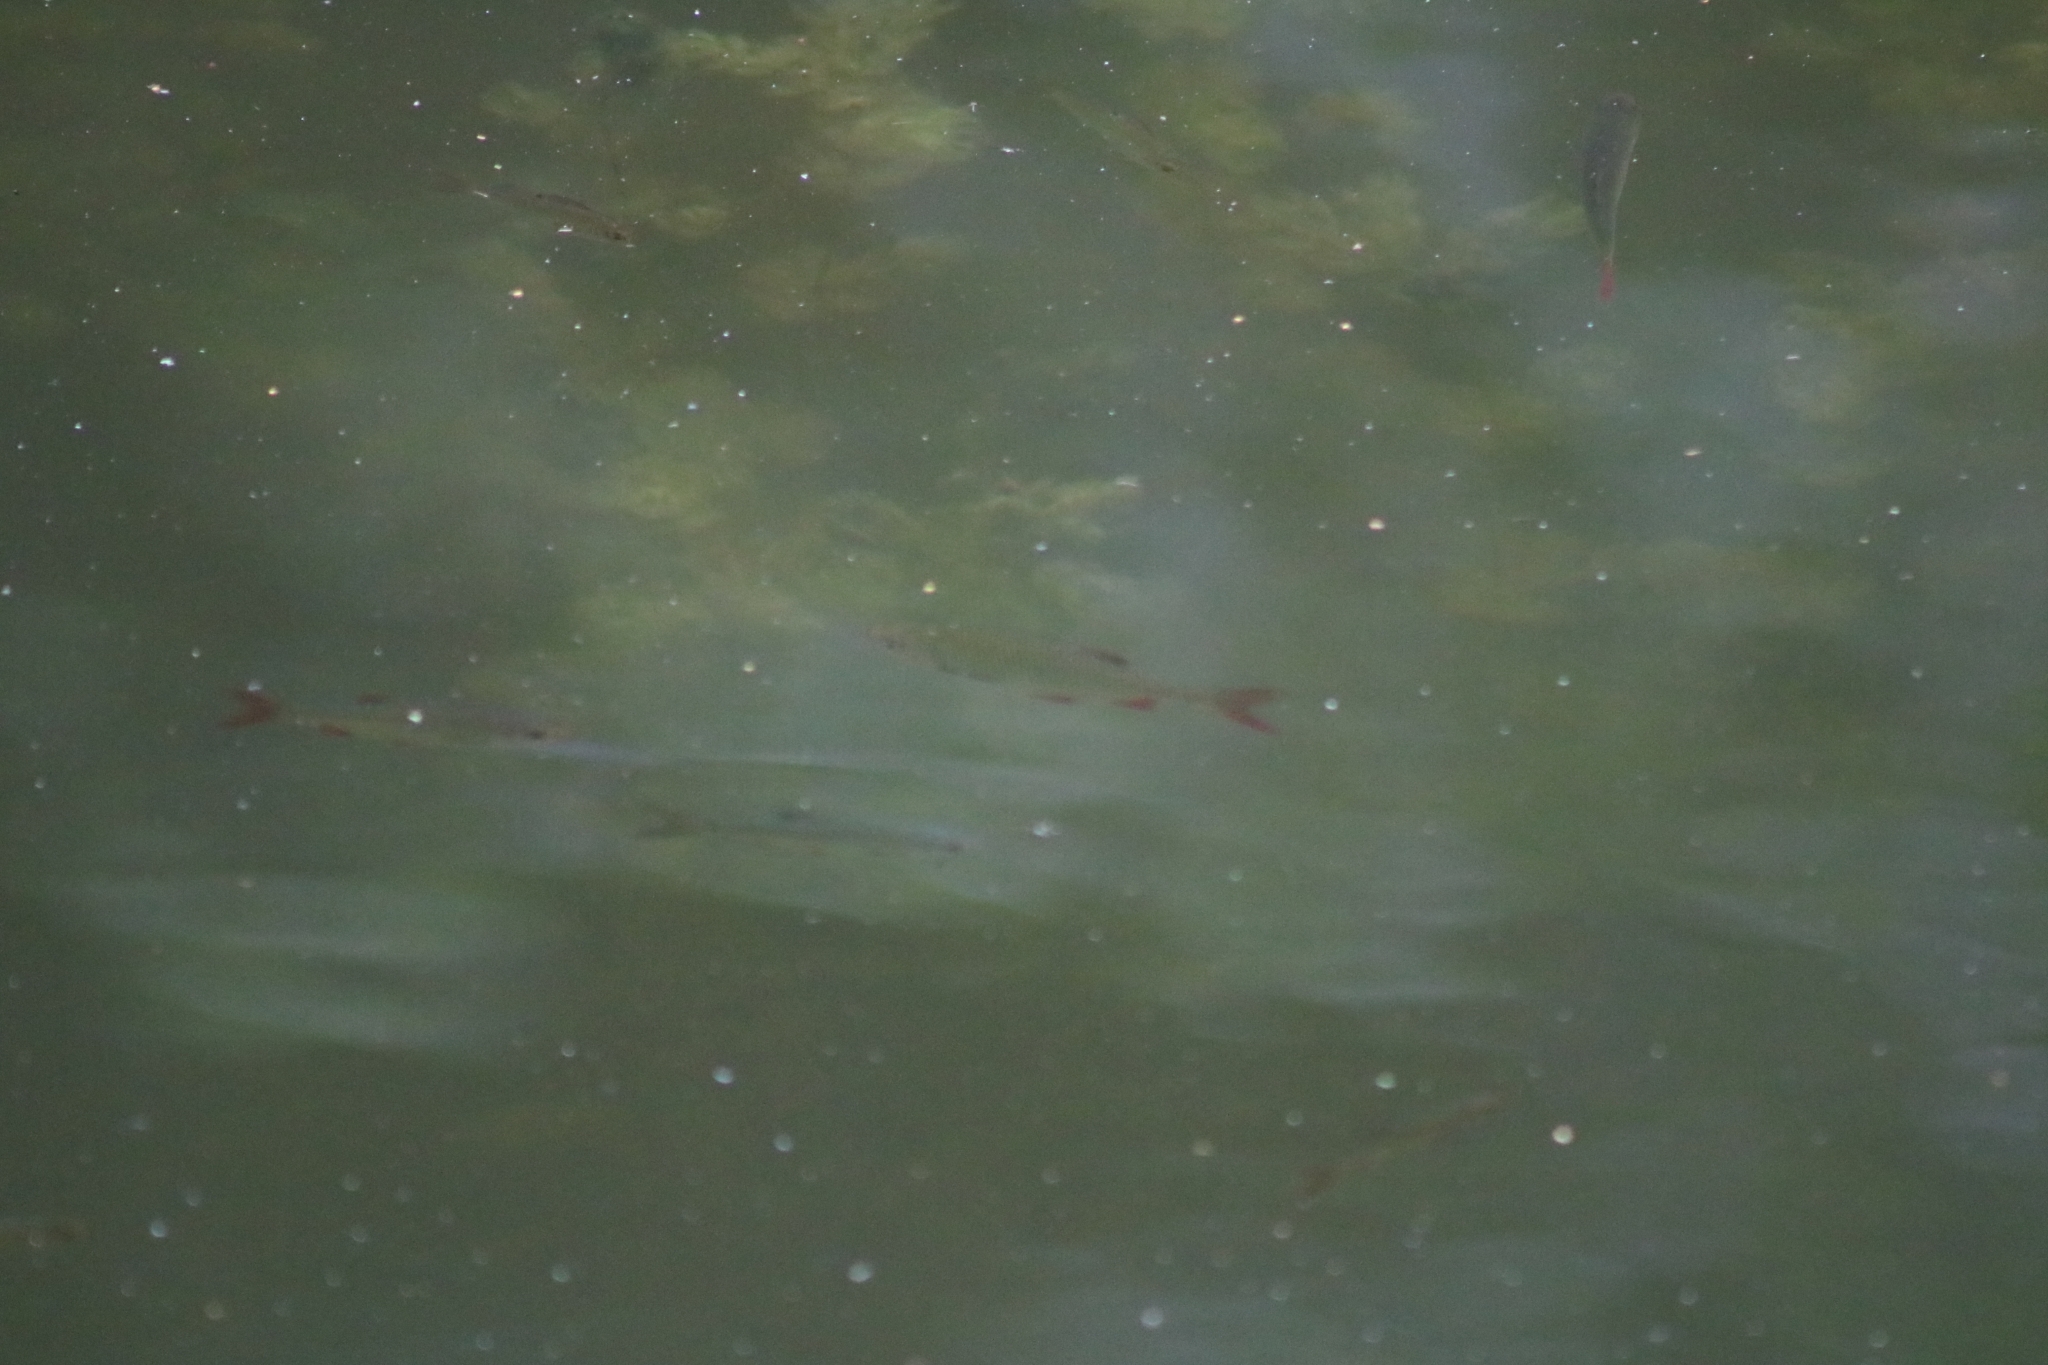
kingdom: Animalia
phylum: Chordata
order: Cypriniformes
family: Cyprinidae
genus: Scardinius
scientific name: Scardinius erythrophthalmus
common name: Rudd
